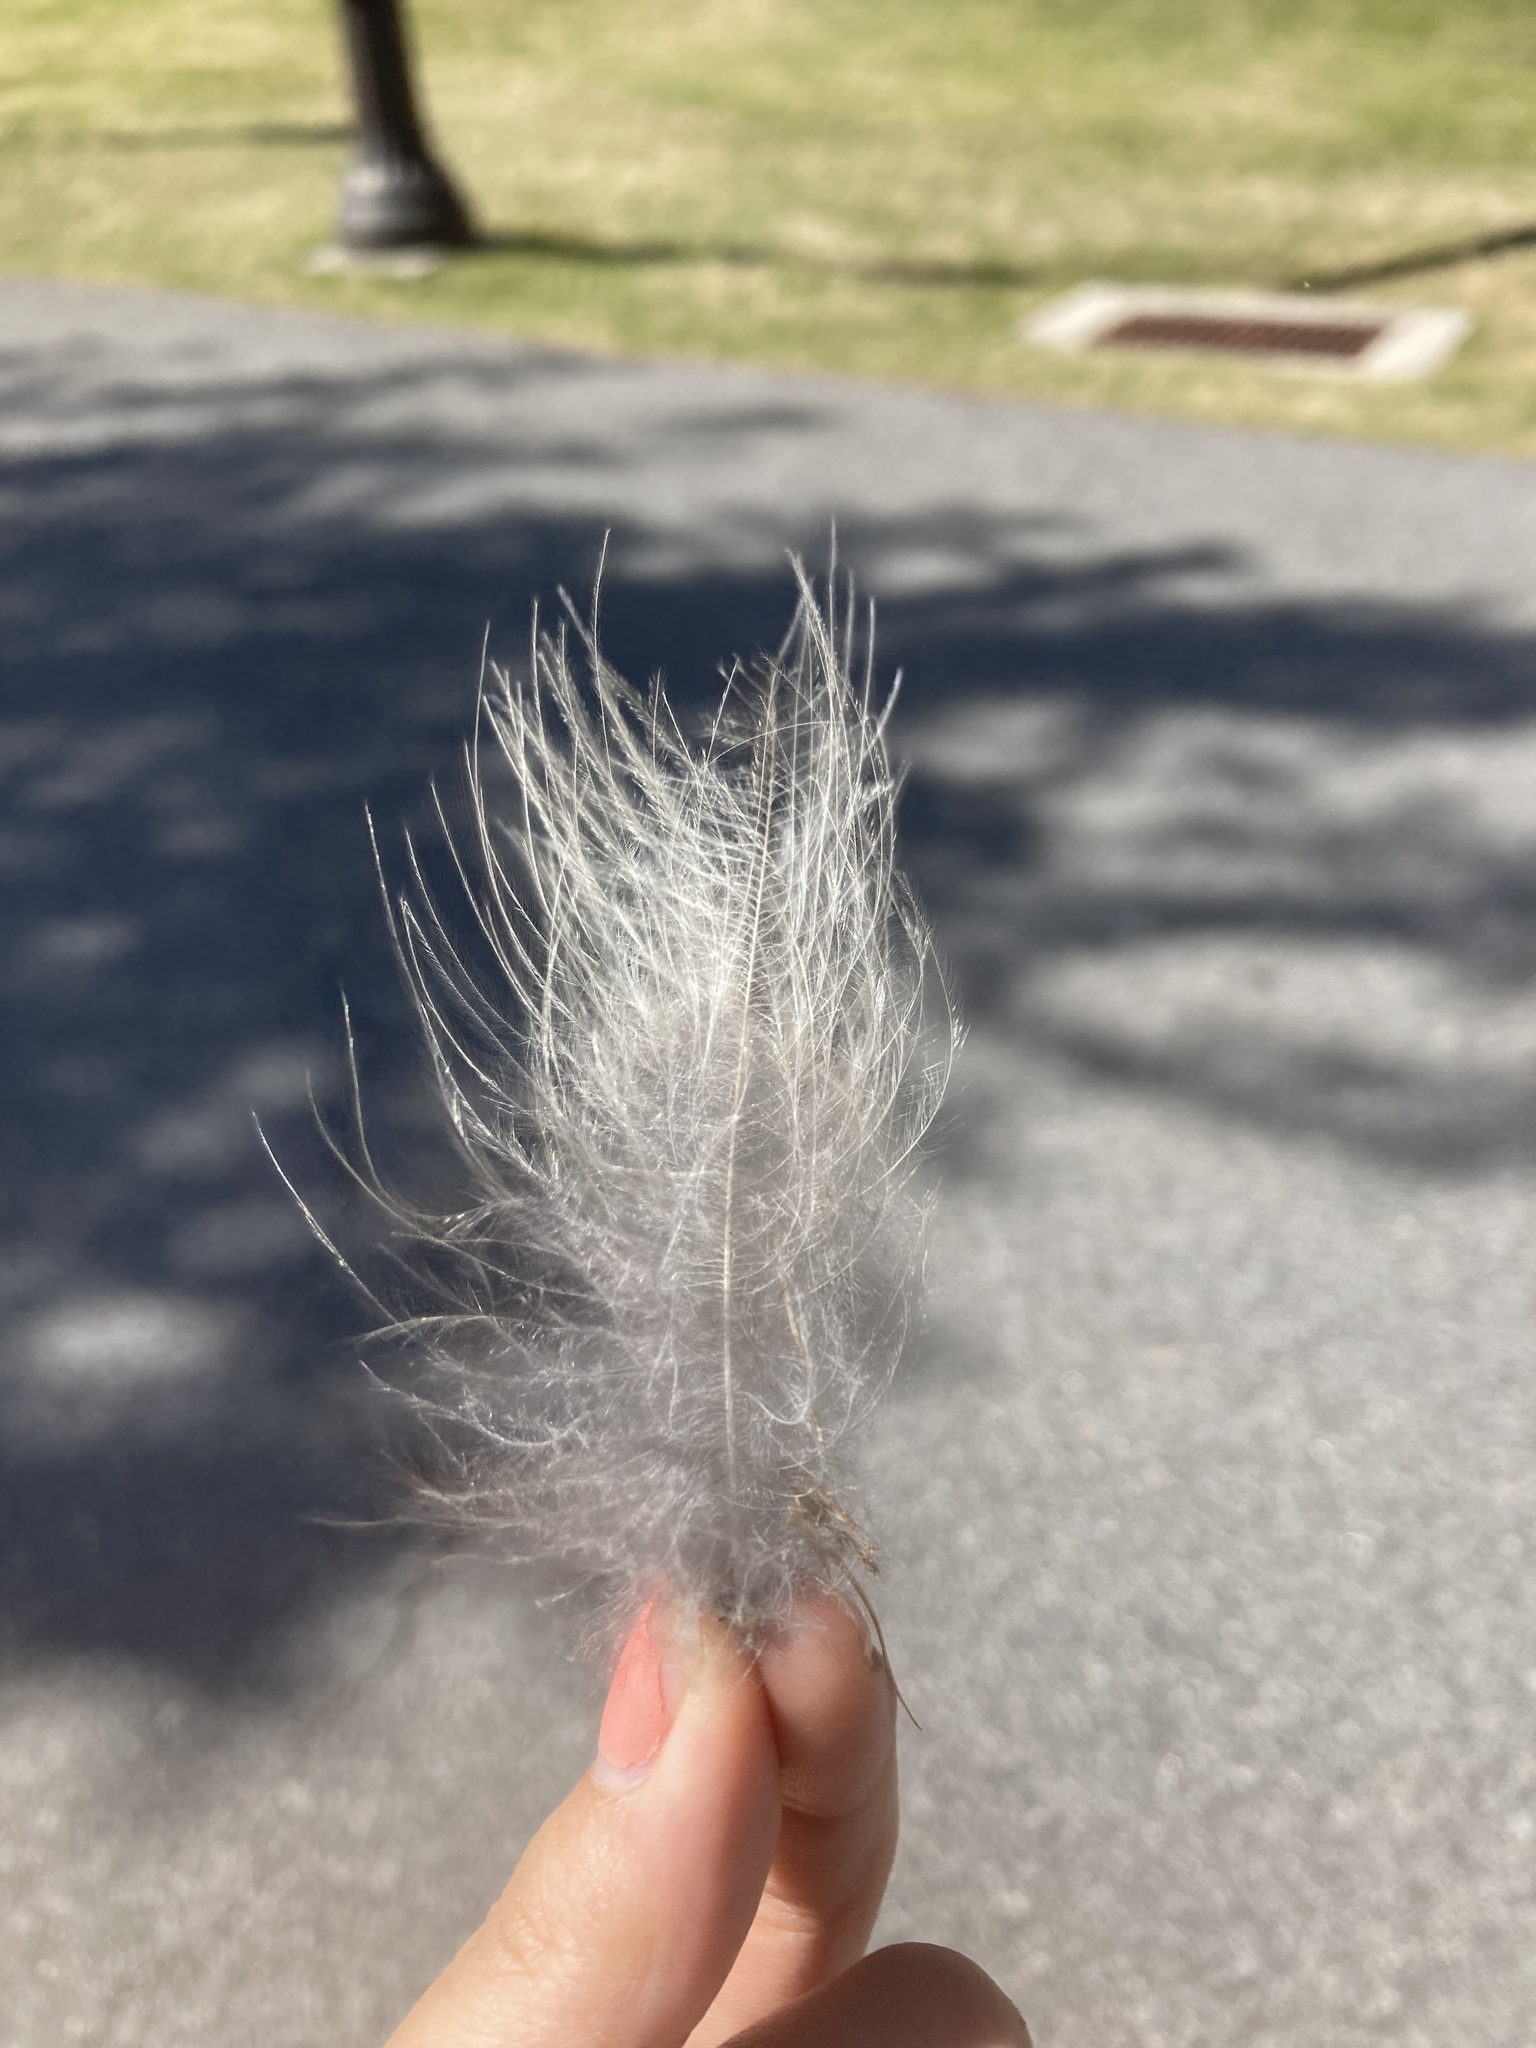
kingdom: Animalia
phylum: Chordata
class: Aves
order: Strigiformes
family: Strigidae
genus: Strix
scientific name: Strix varia
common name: Barred owl
